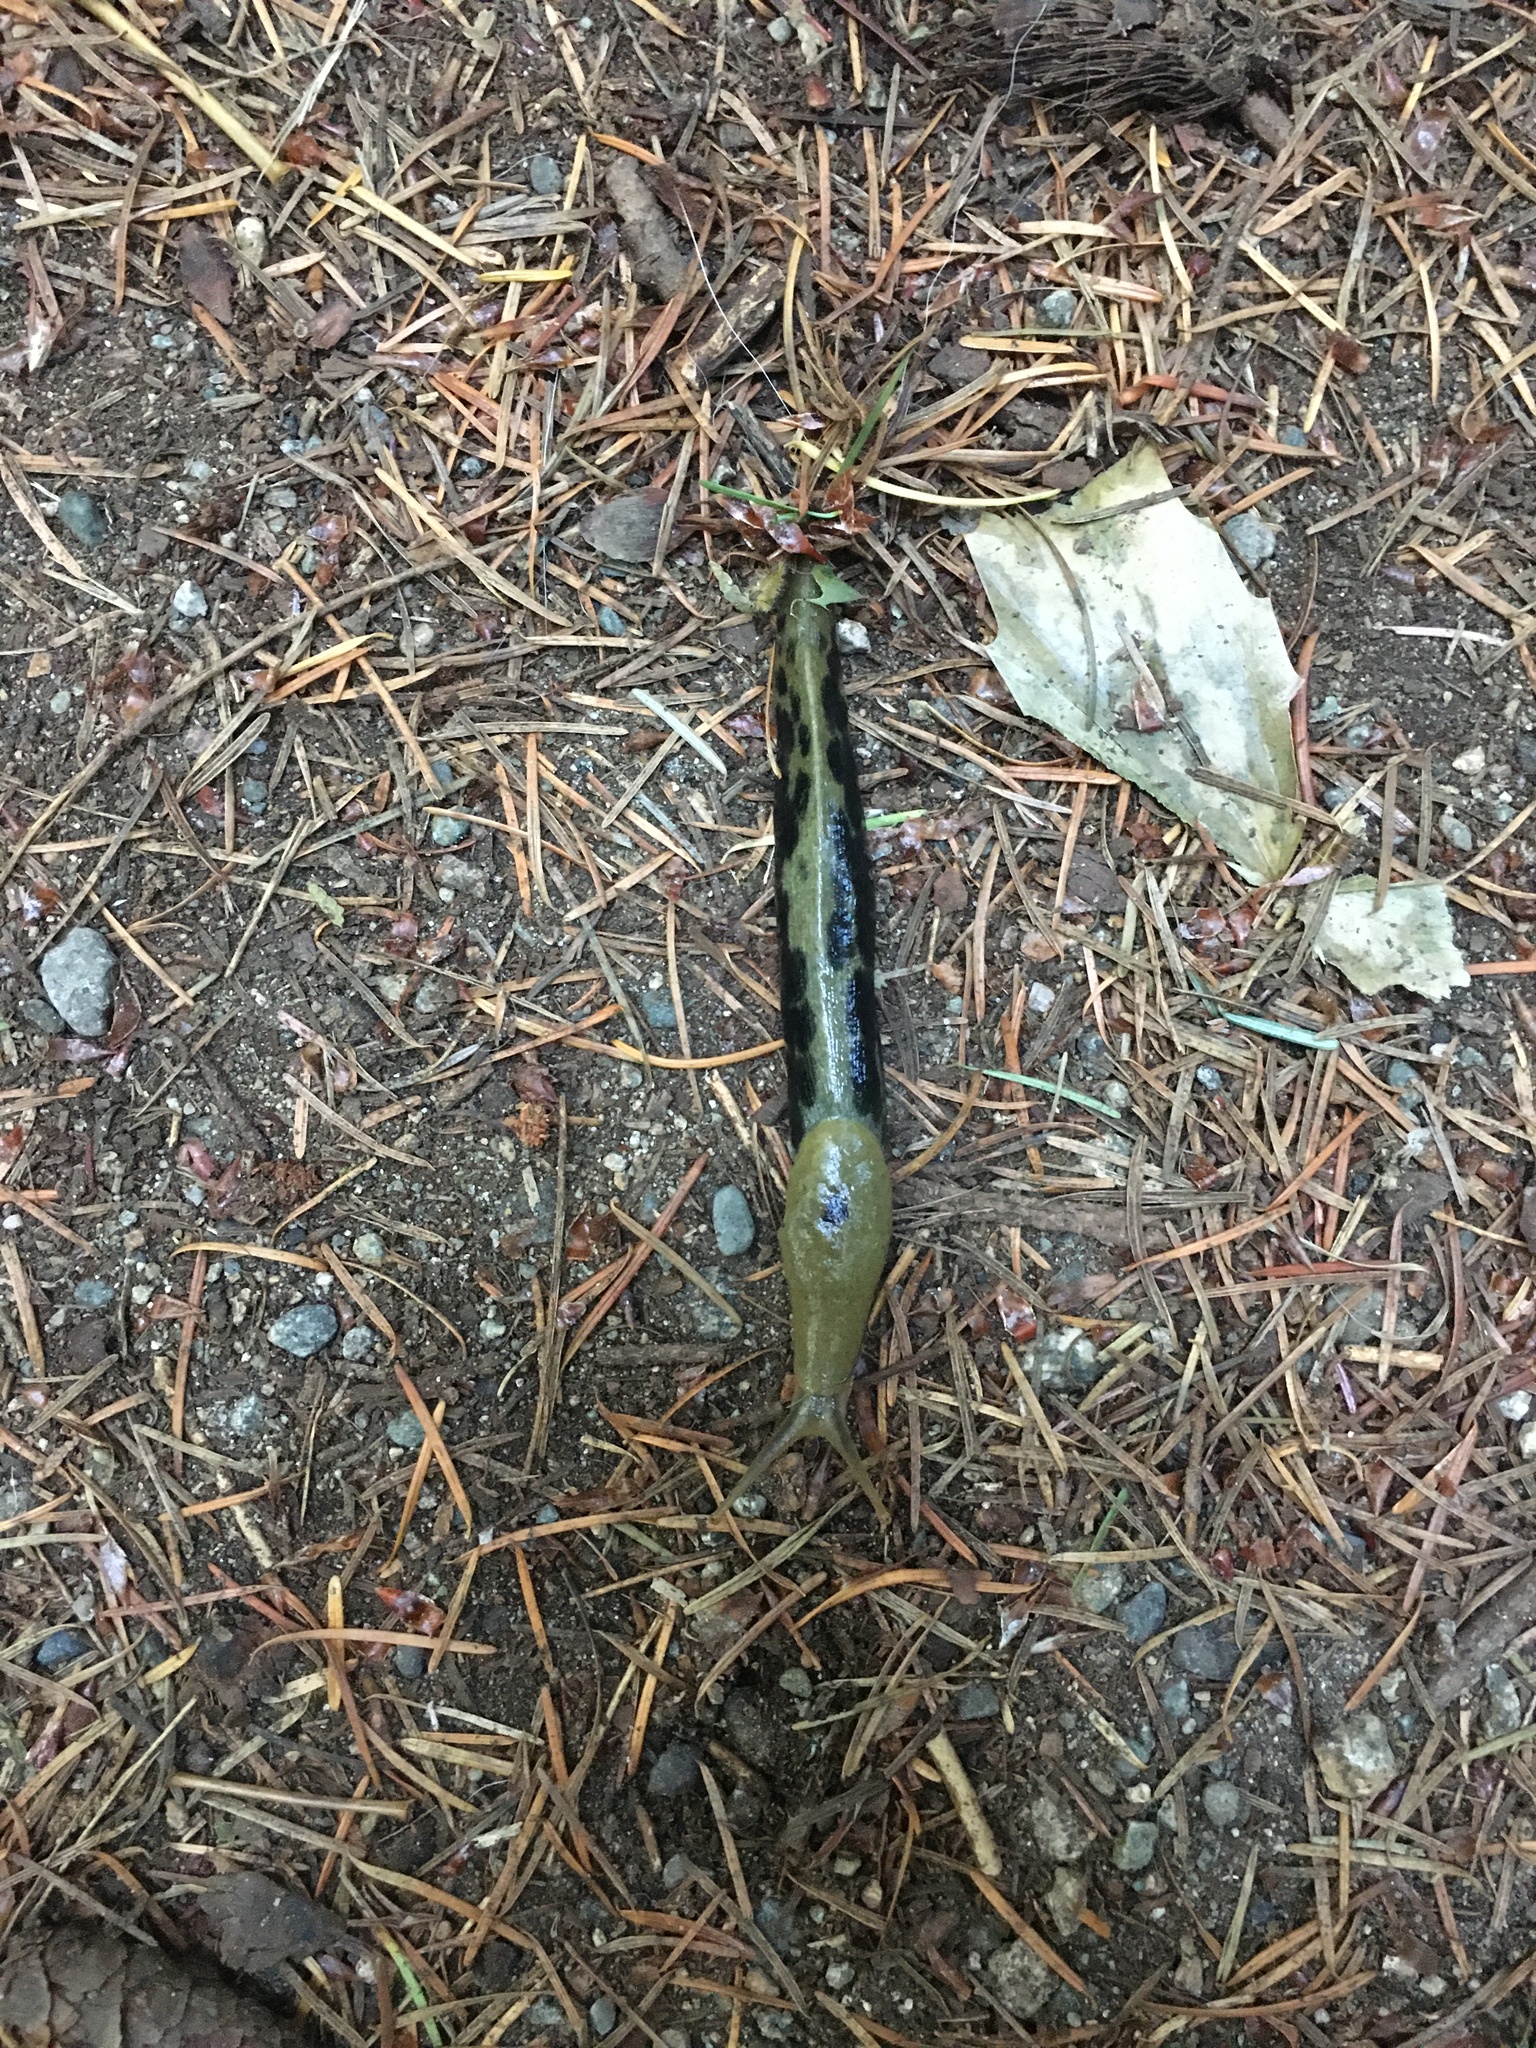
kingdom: Animalia
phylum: Mollusca
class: Gastropoda
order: Stylommatophora
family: Ariolimacidae
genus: Ariolimax
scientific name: Ariolimax columbianus
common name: Pacific banana slug
